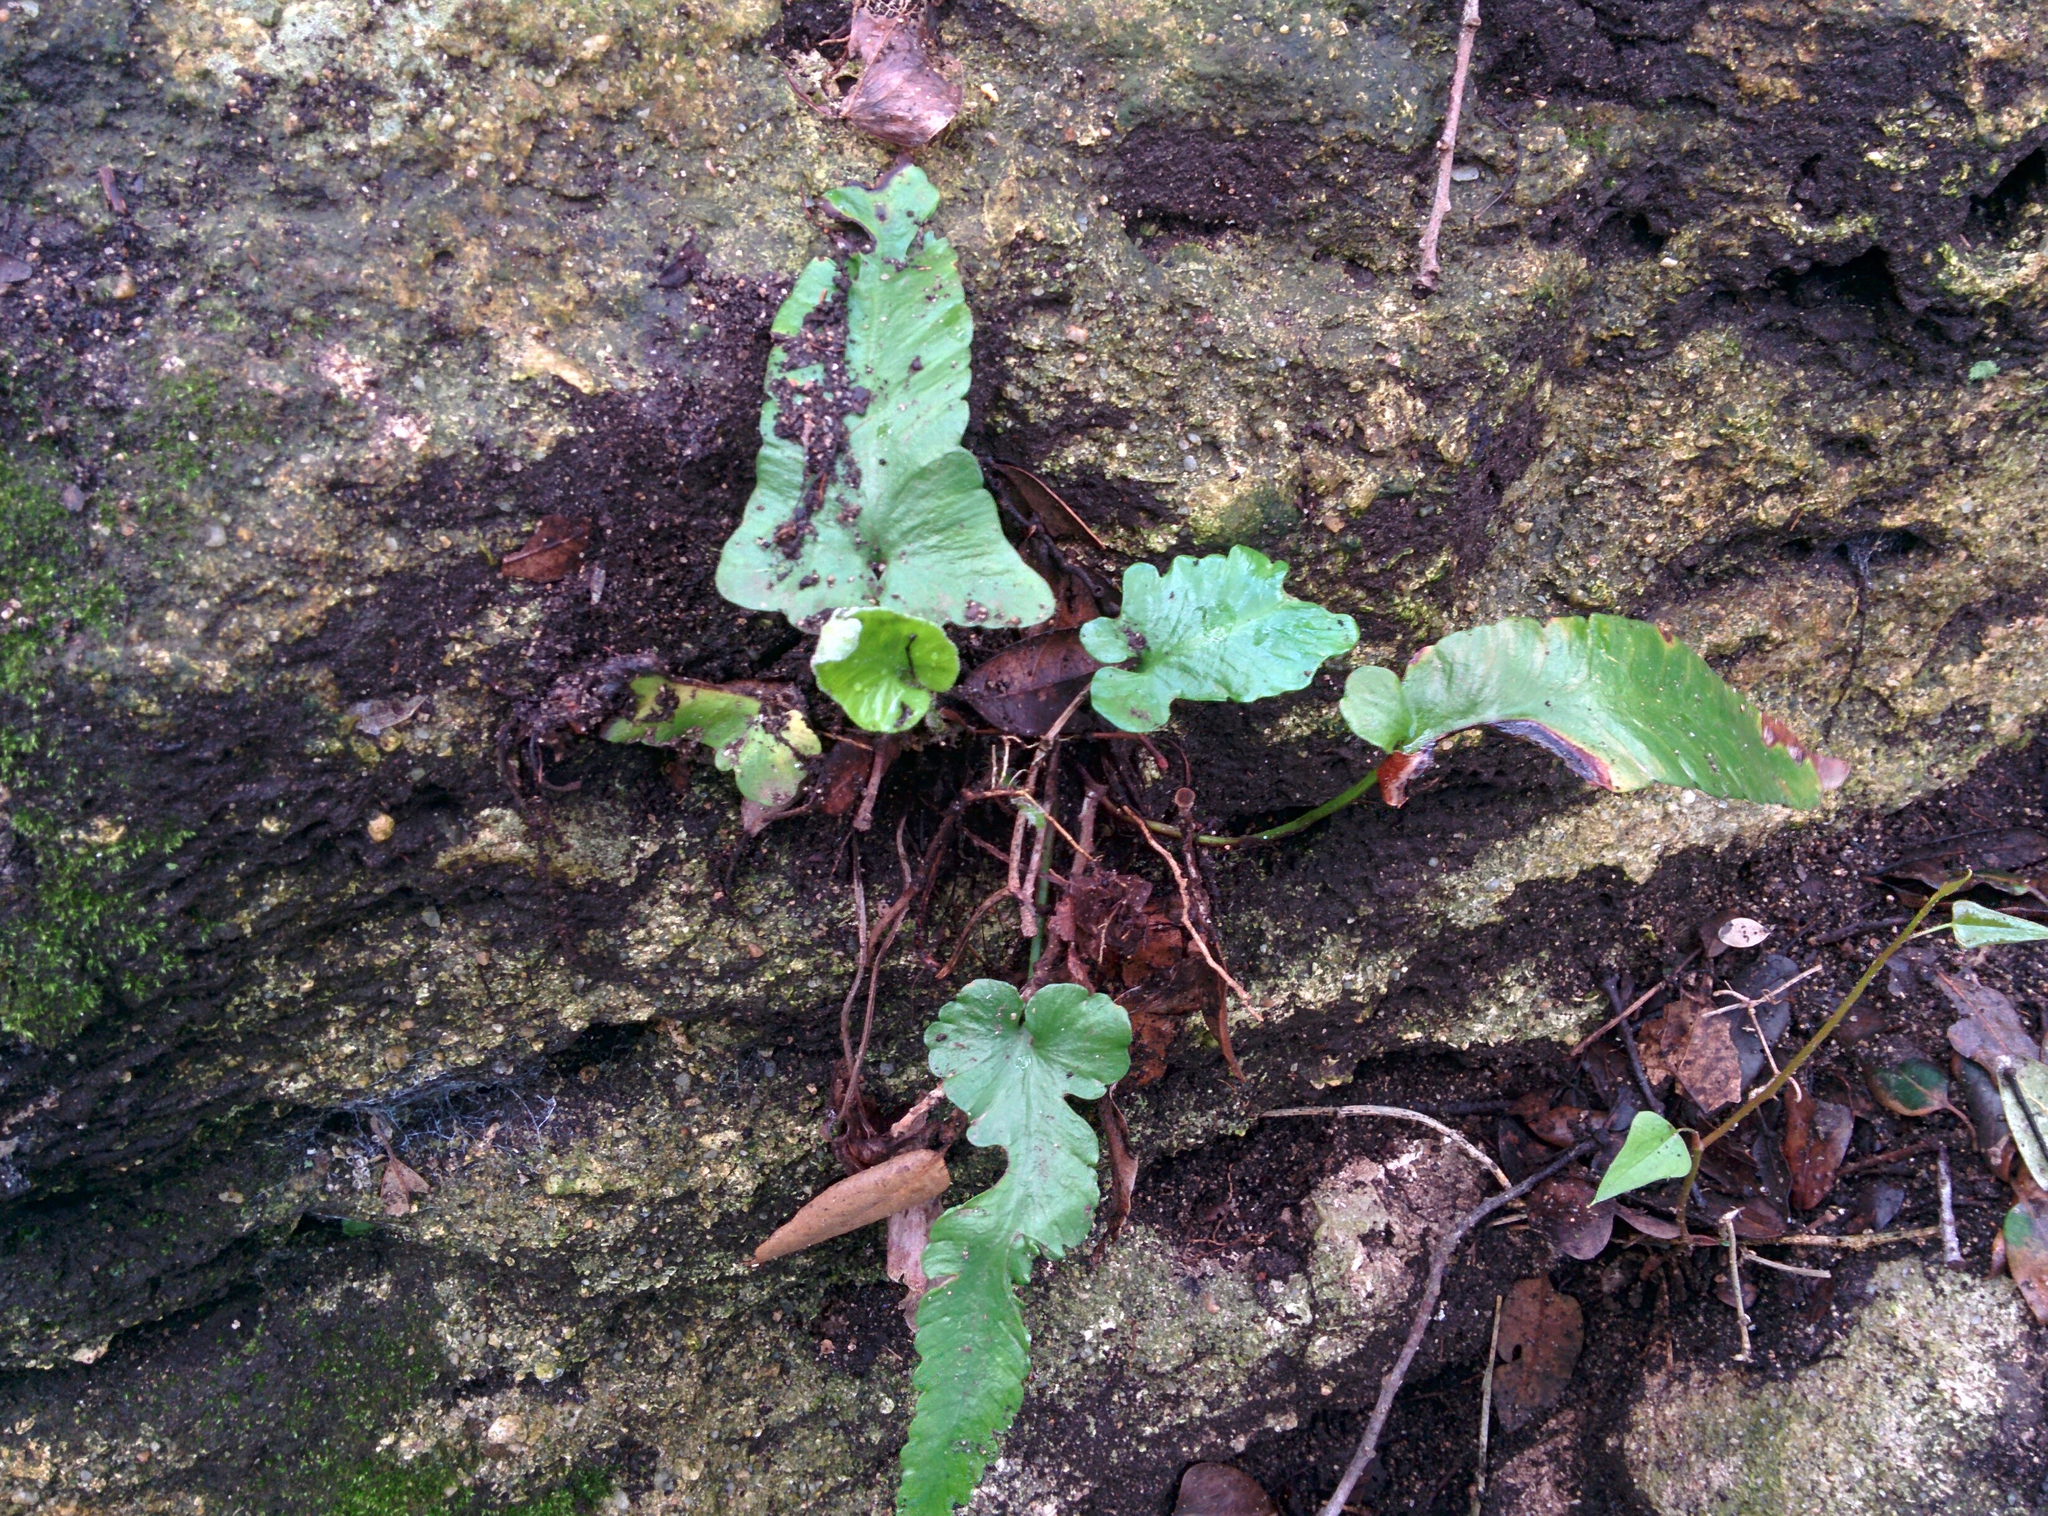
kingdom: Plantae
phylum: Tracheophyta
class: Polypodiopsida
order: Polypodiales
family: Aspleniaceae
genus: Asplenium
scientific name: Asplenium sagittatum
